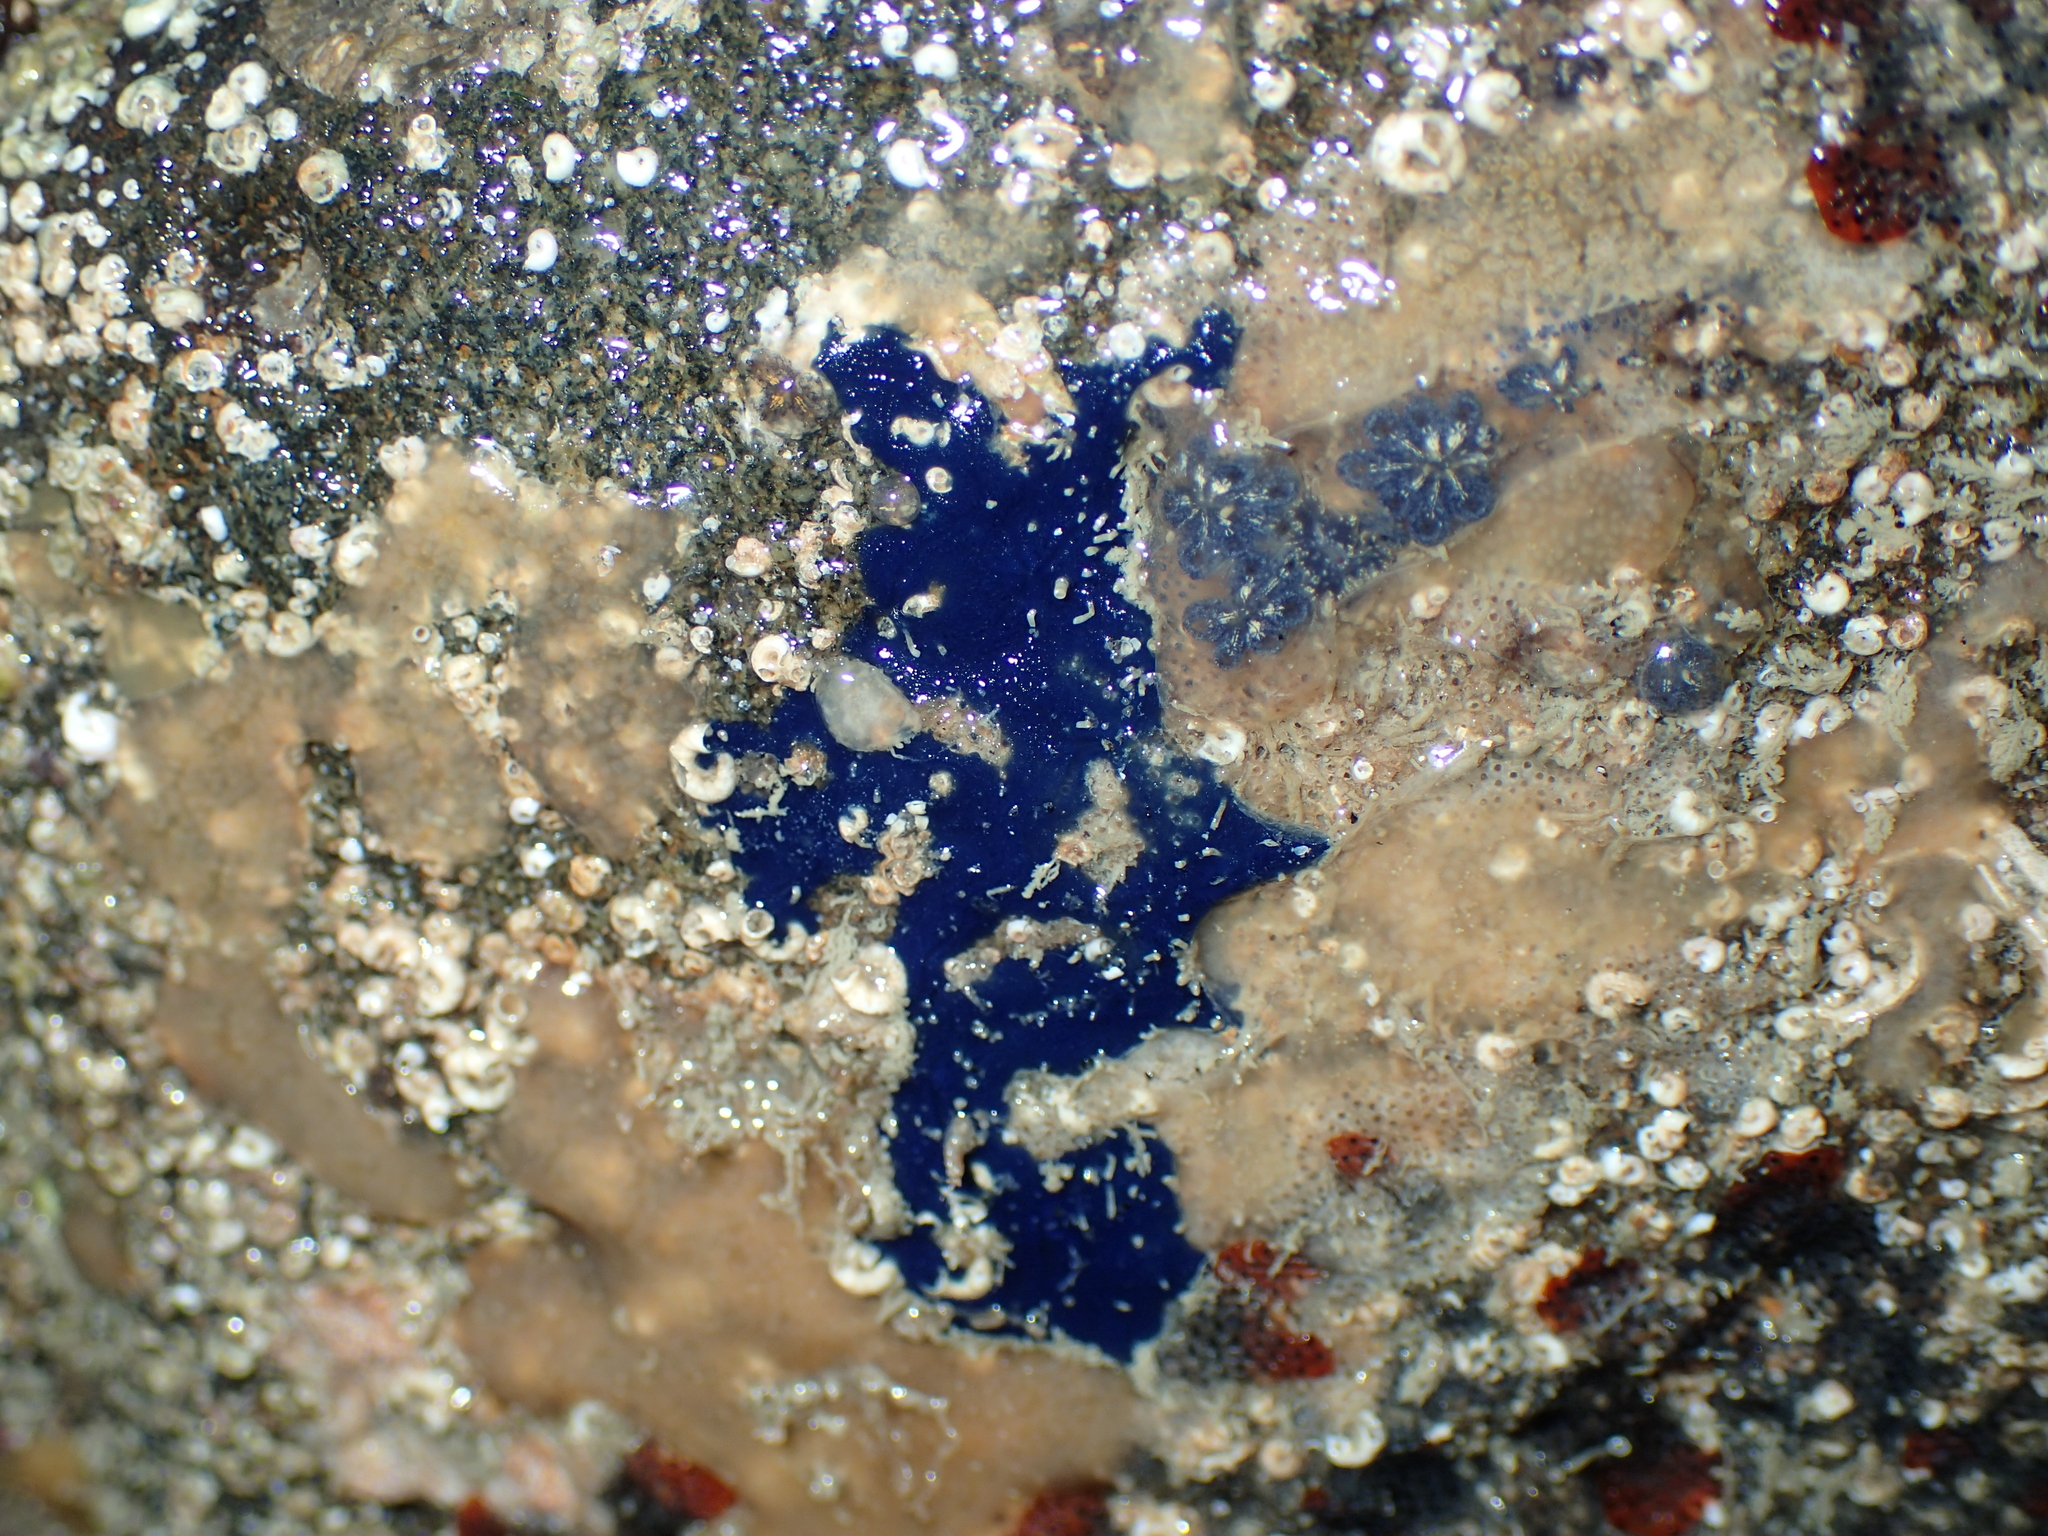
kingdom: Animalia
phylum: Porifera
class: Demospongiae
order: Suberitida
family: Suberitidae
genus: Terpios
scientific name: Terpios gelatinosus
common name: Blue encrusting sponge
